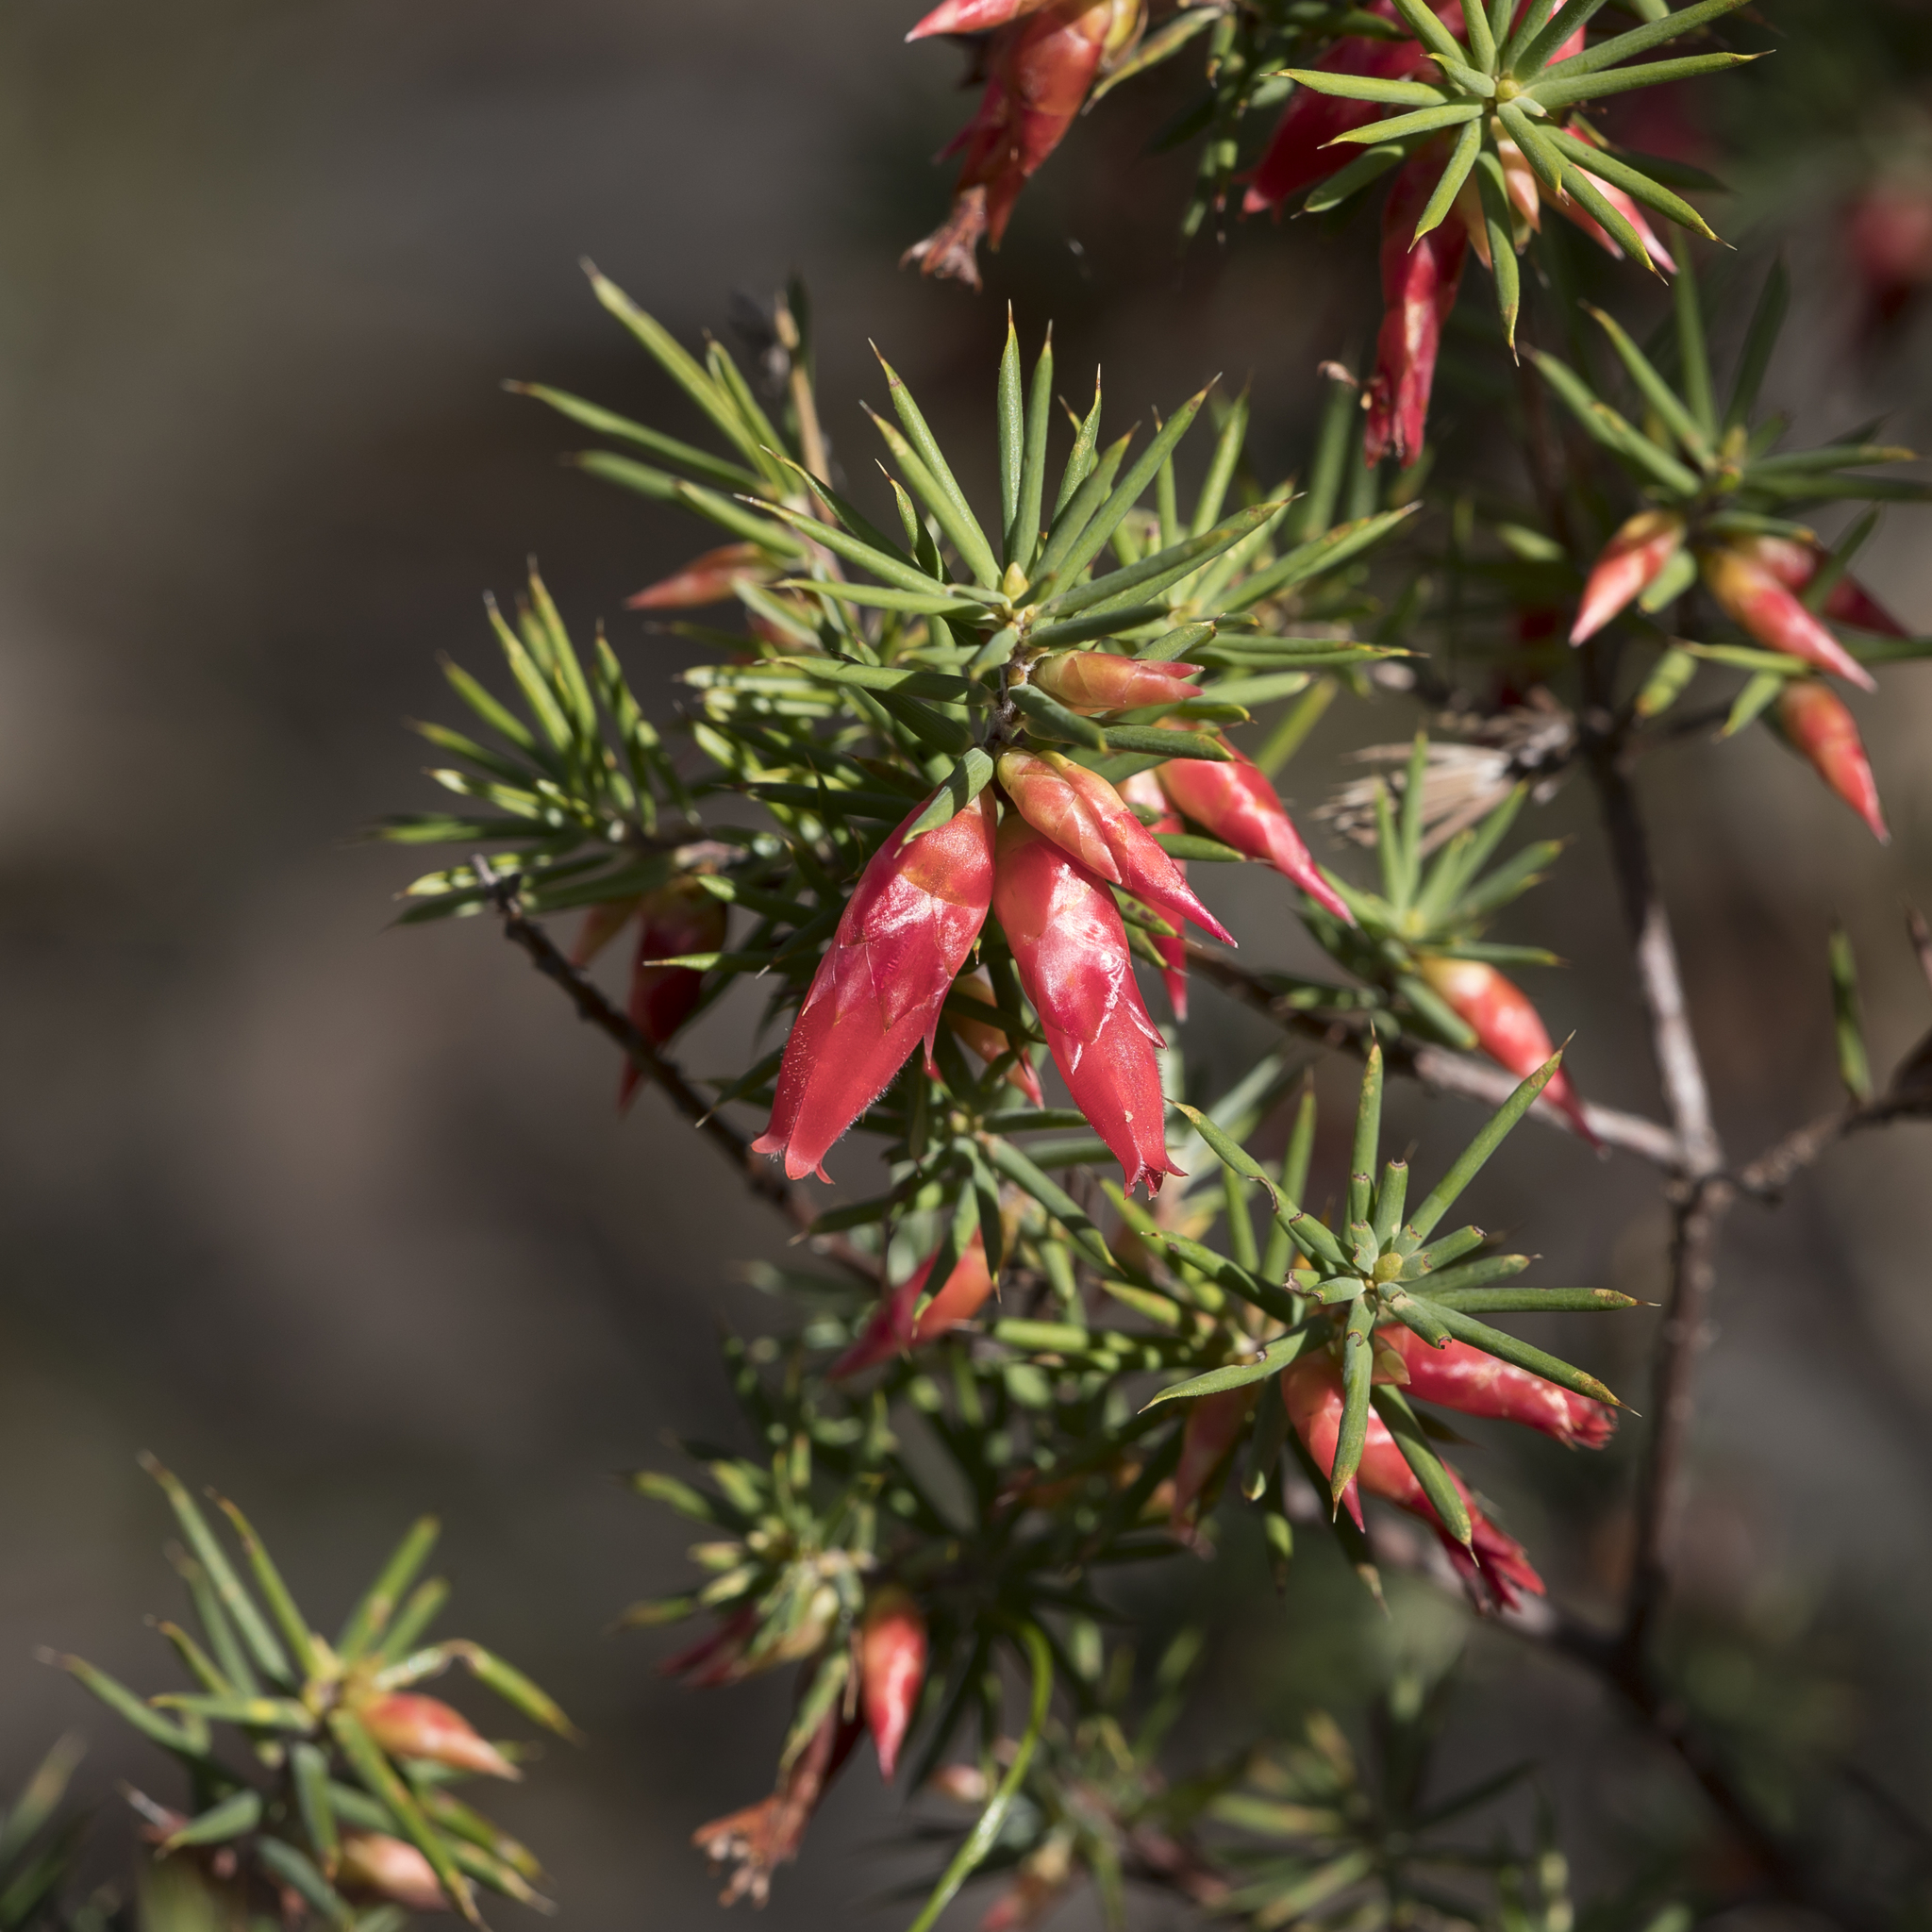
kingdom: Plantae
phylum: Tracheophyta
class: Magnoliopsida
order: Ericales
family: Ericaceae
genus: Stenanthera
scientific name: Stenanthera conostephioides
